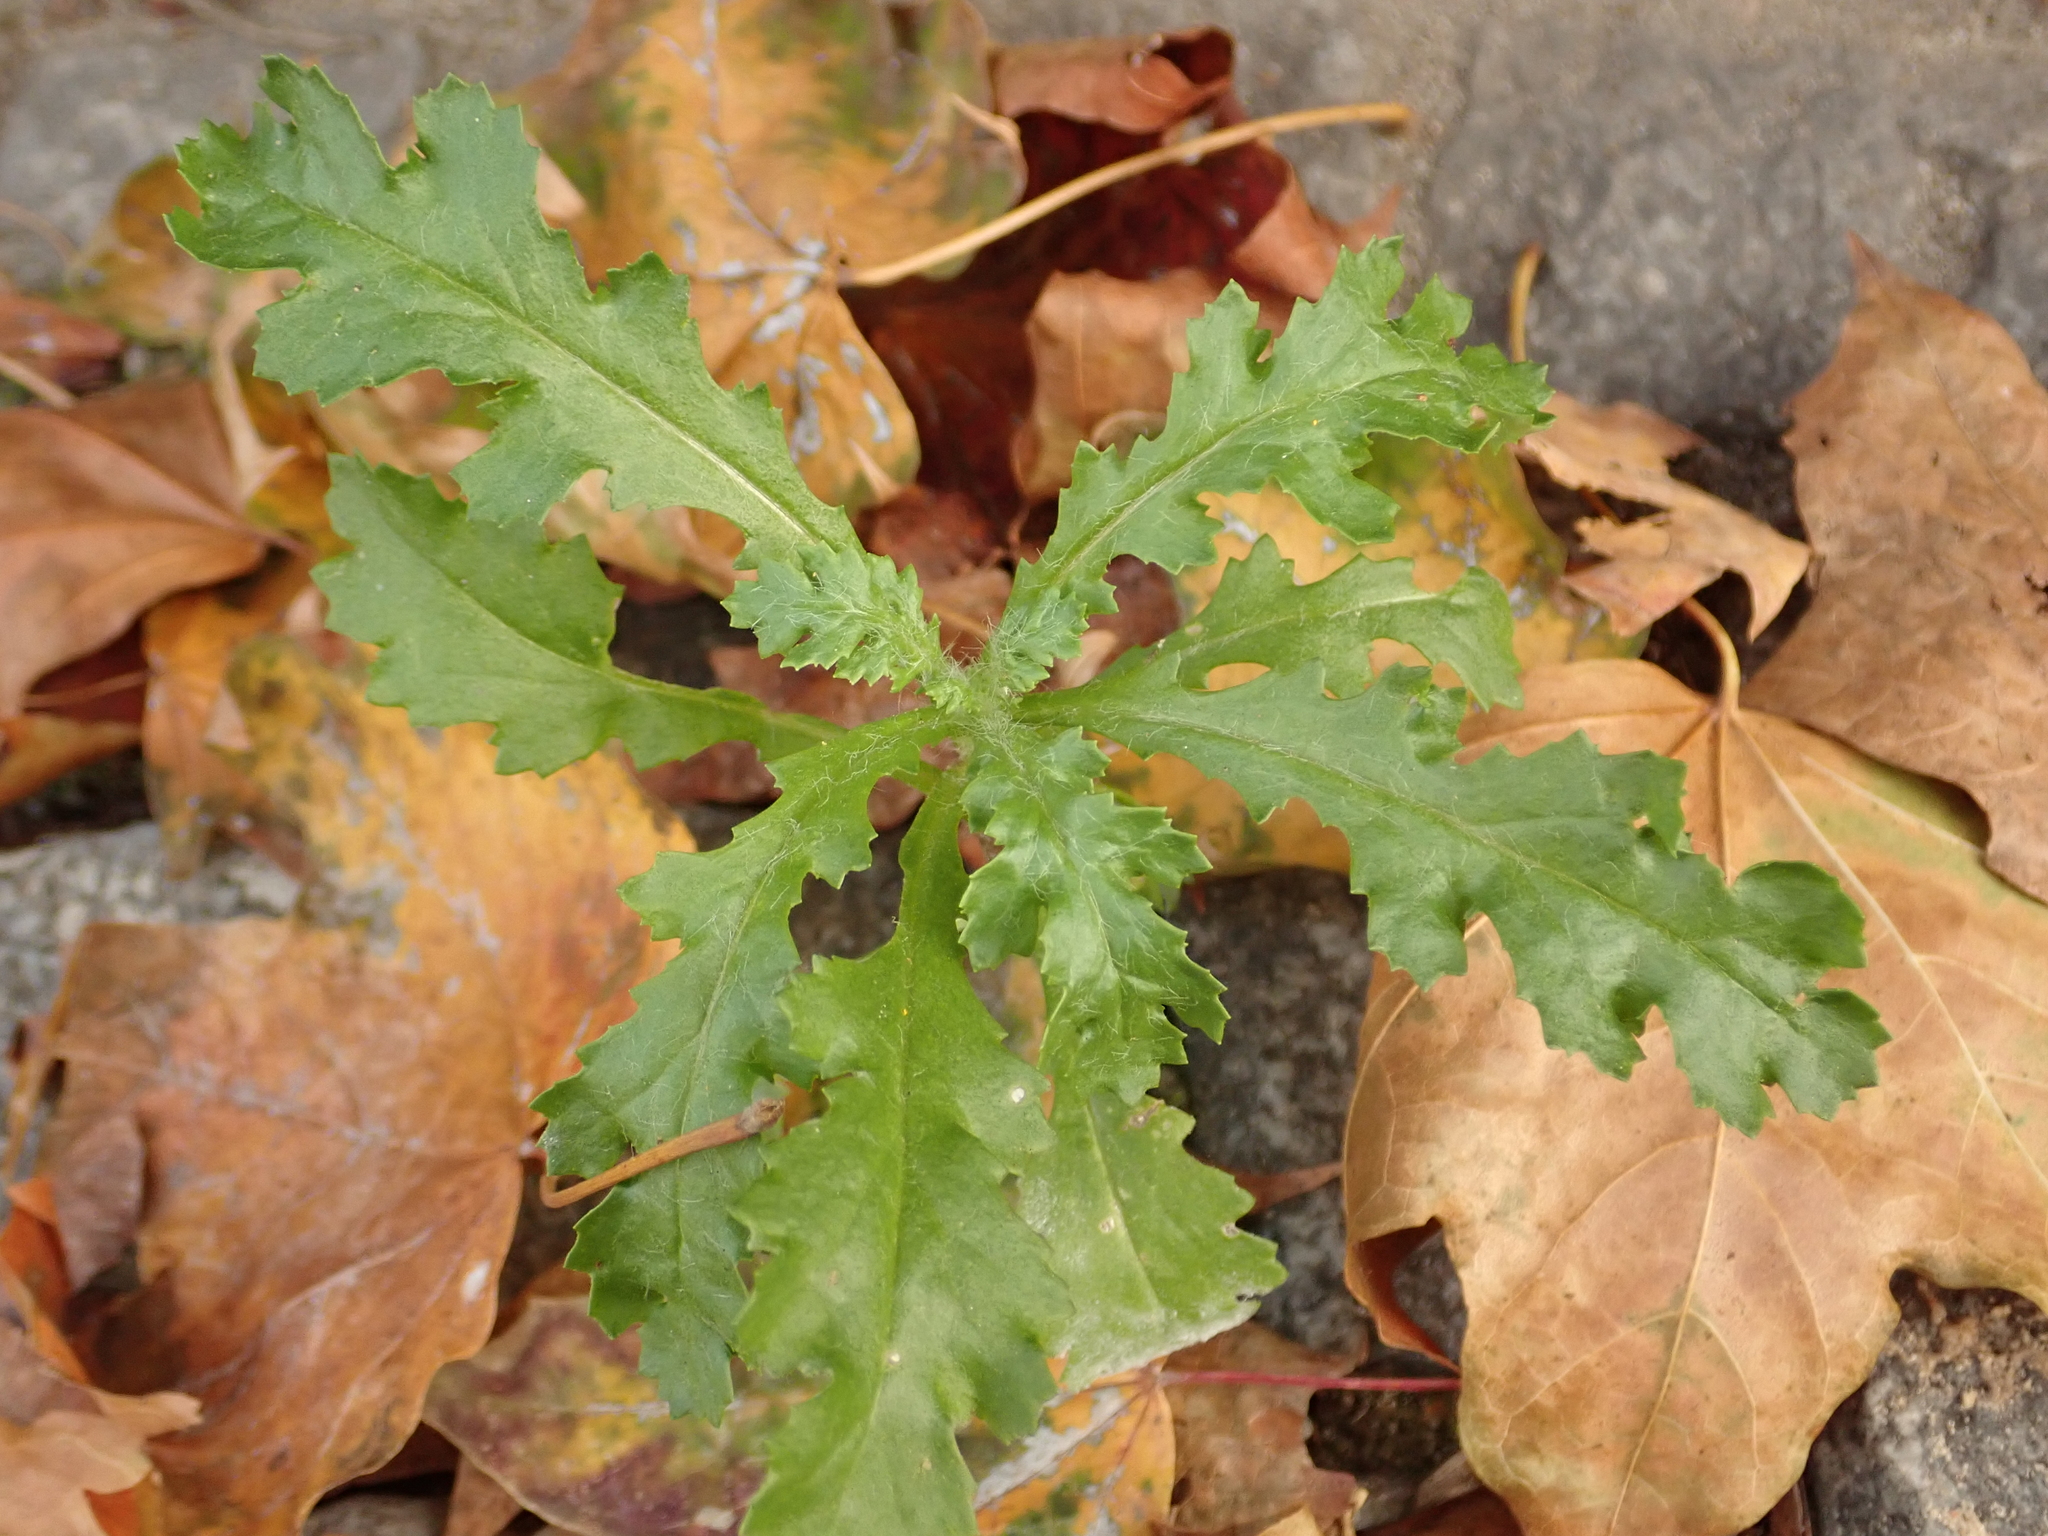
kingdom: Plantae
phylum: Tracheophyta
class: Magnoliopsida
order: Asterales
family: Asteraceae
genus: Senecio
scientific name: Senecio vulgaris
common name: Old-man-in-the-spring
